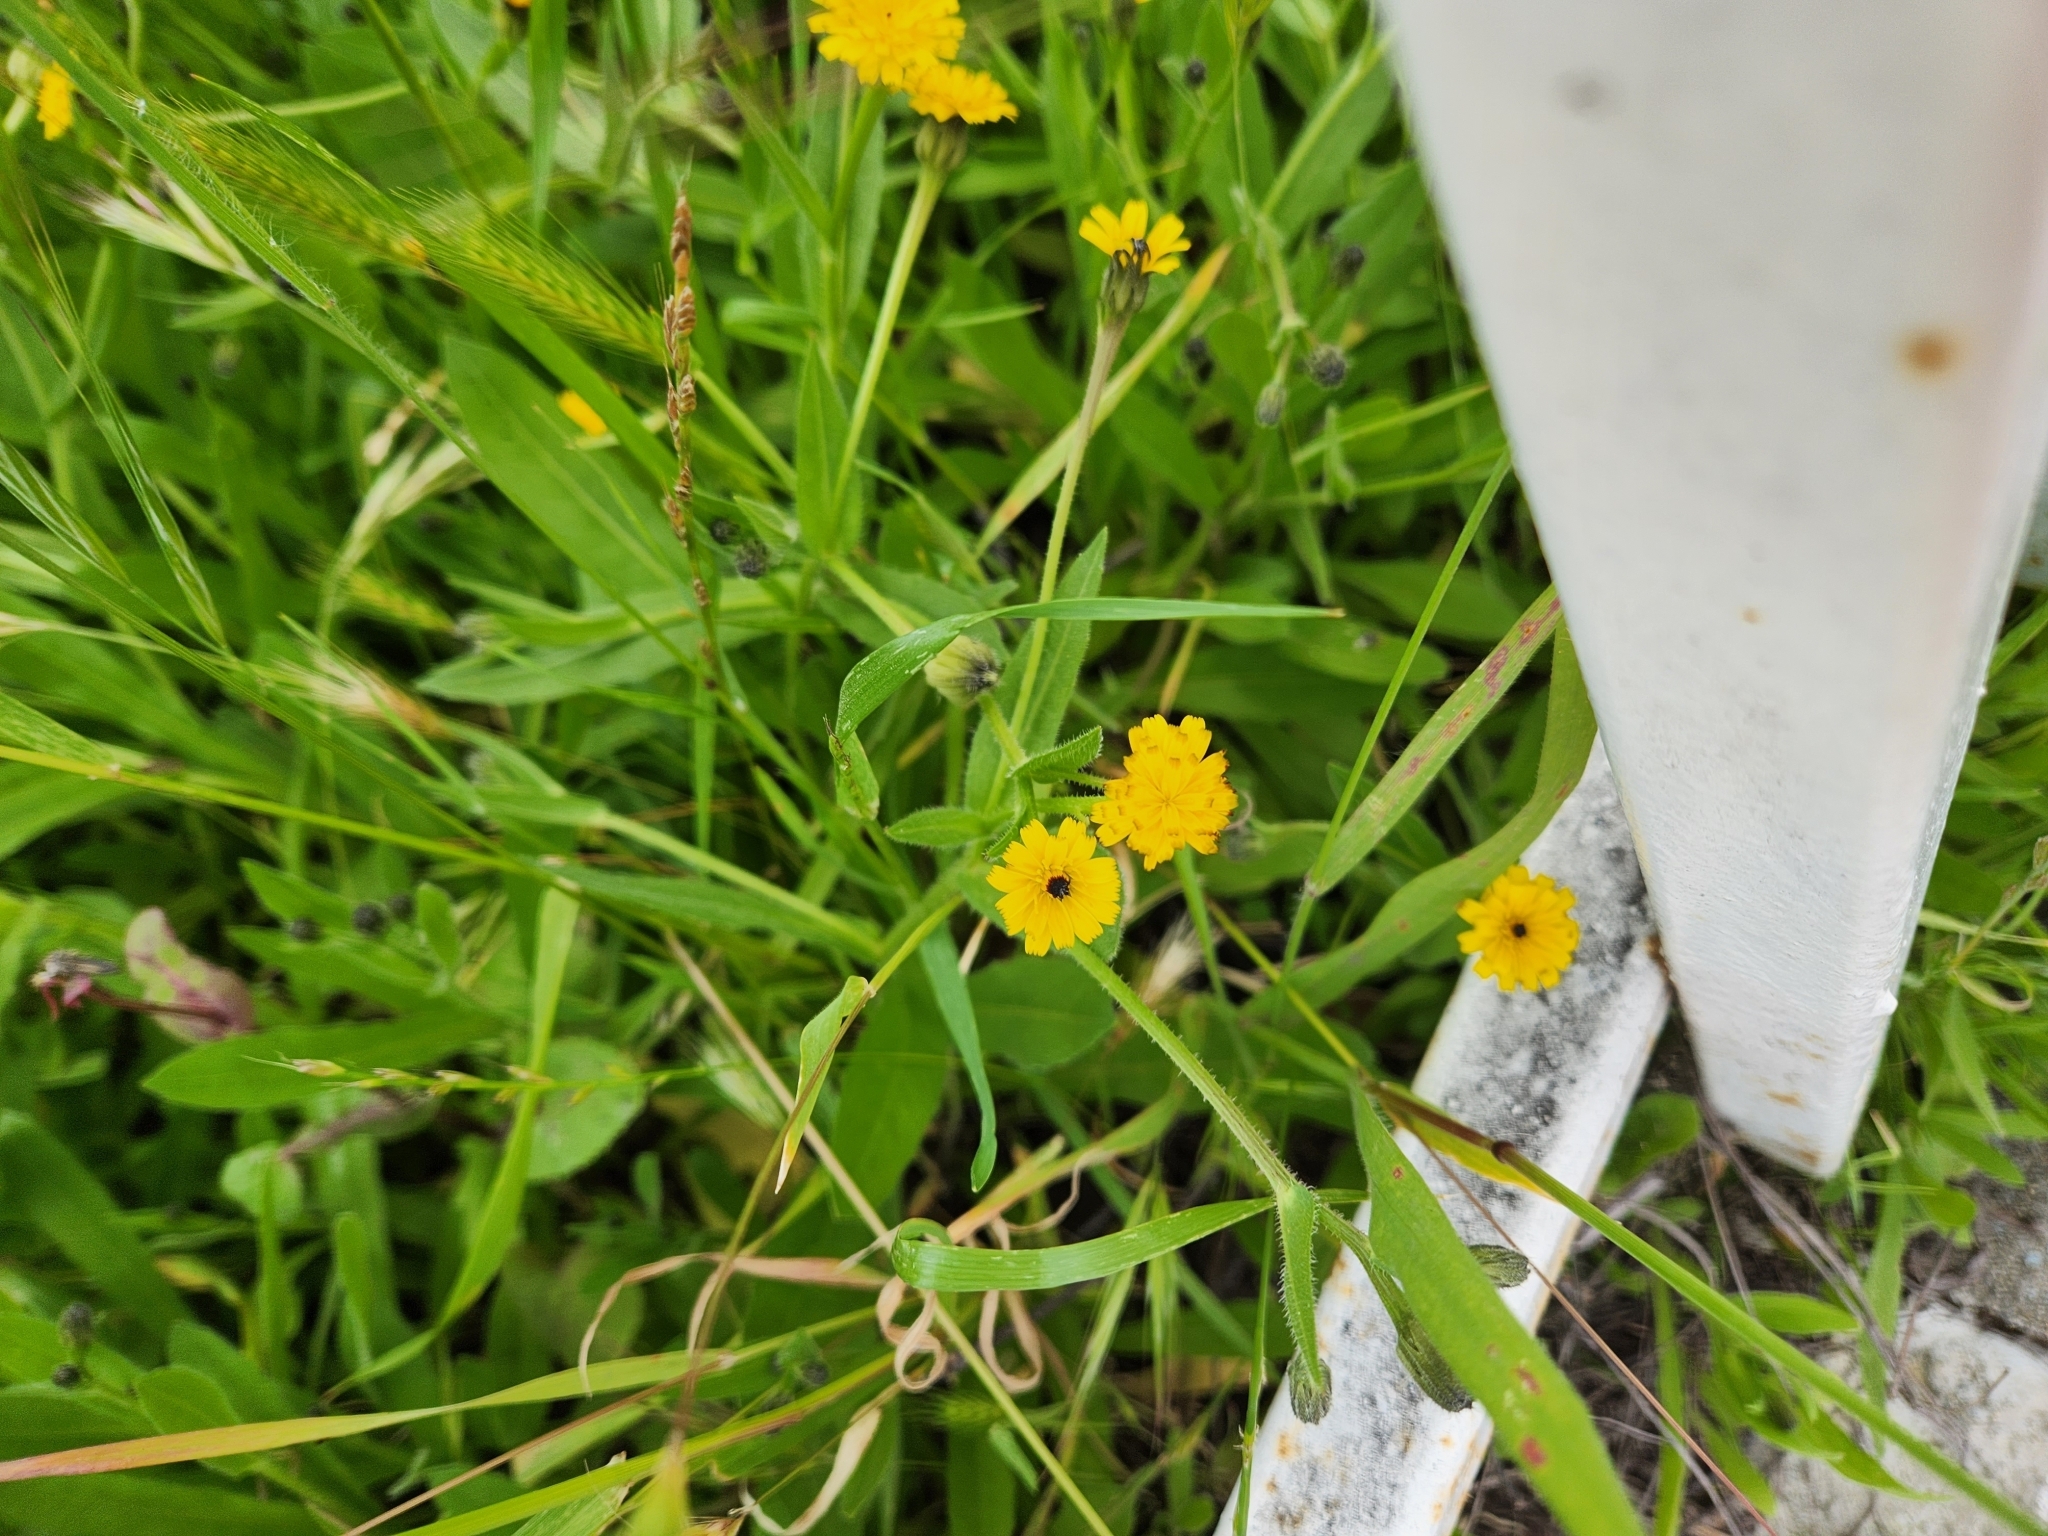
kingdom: Plantae
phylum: Tracheophyta
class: Magnoliopsida
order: Asterales
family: Asteraceae
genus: Hedypnois
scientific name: Hedypnois rhagadioloides
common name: Cretan weed
